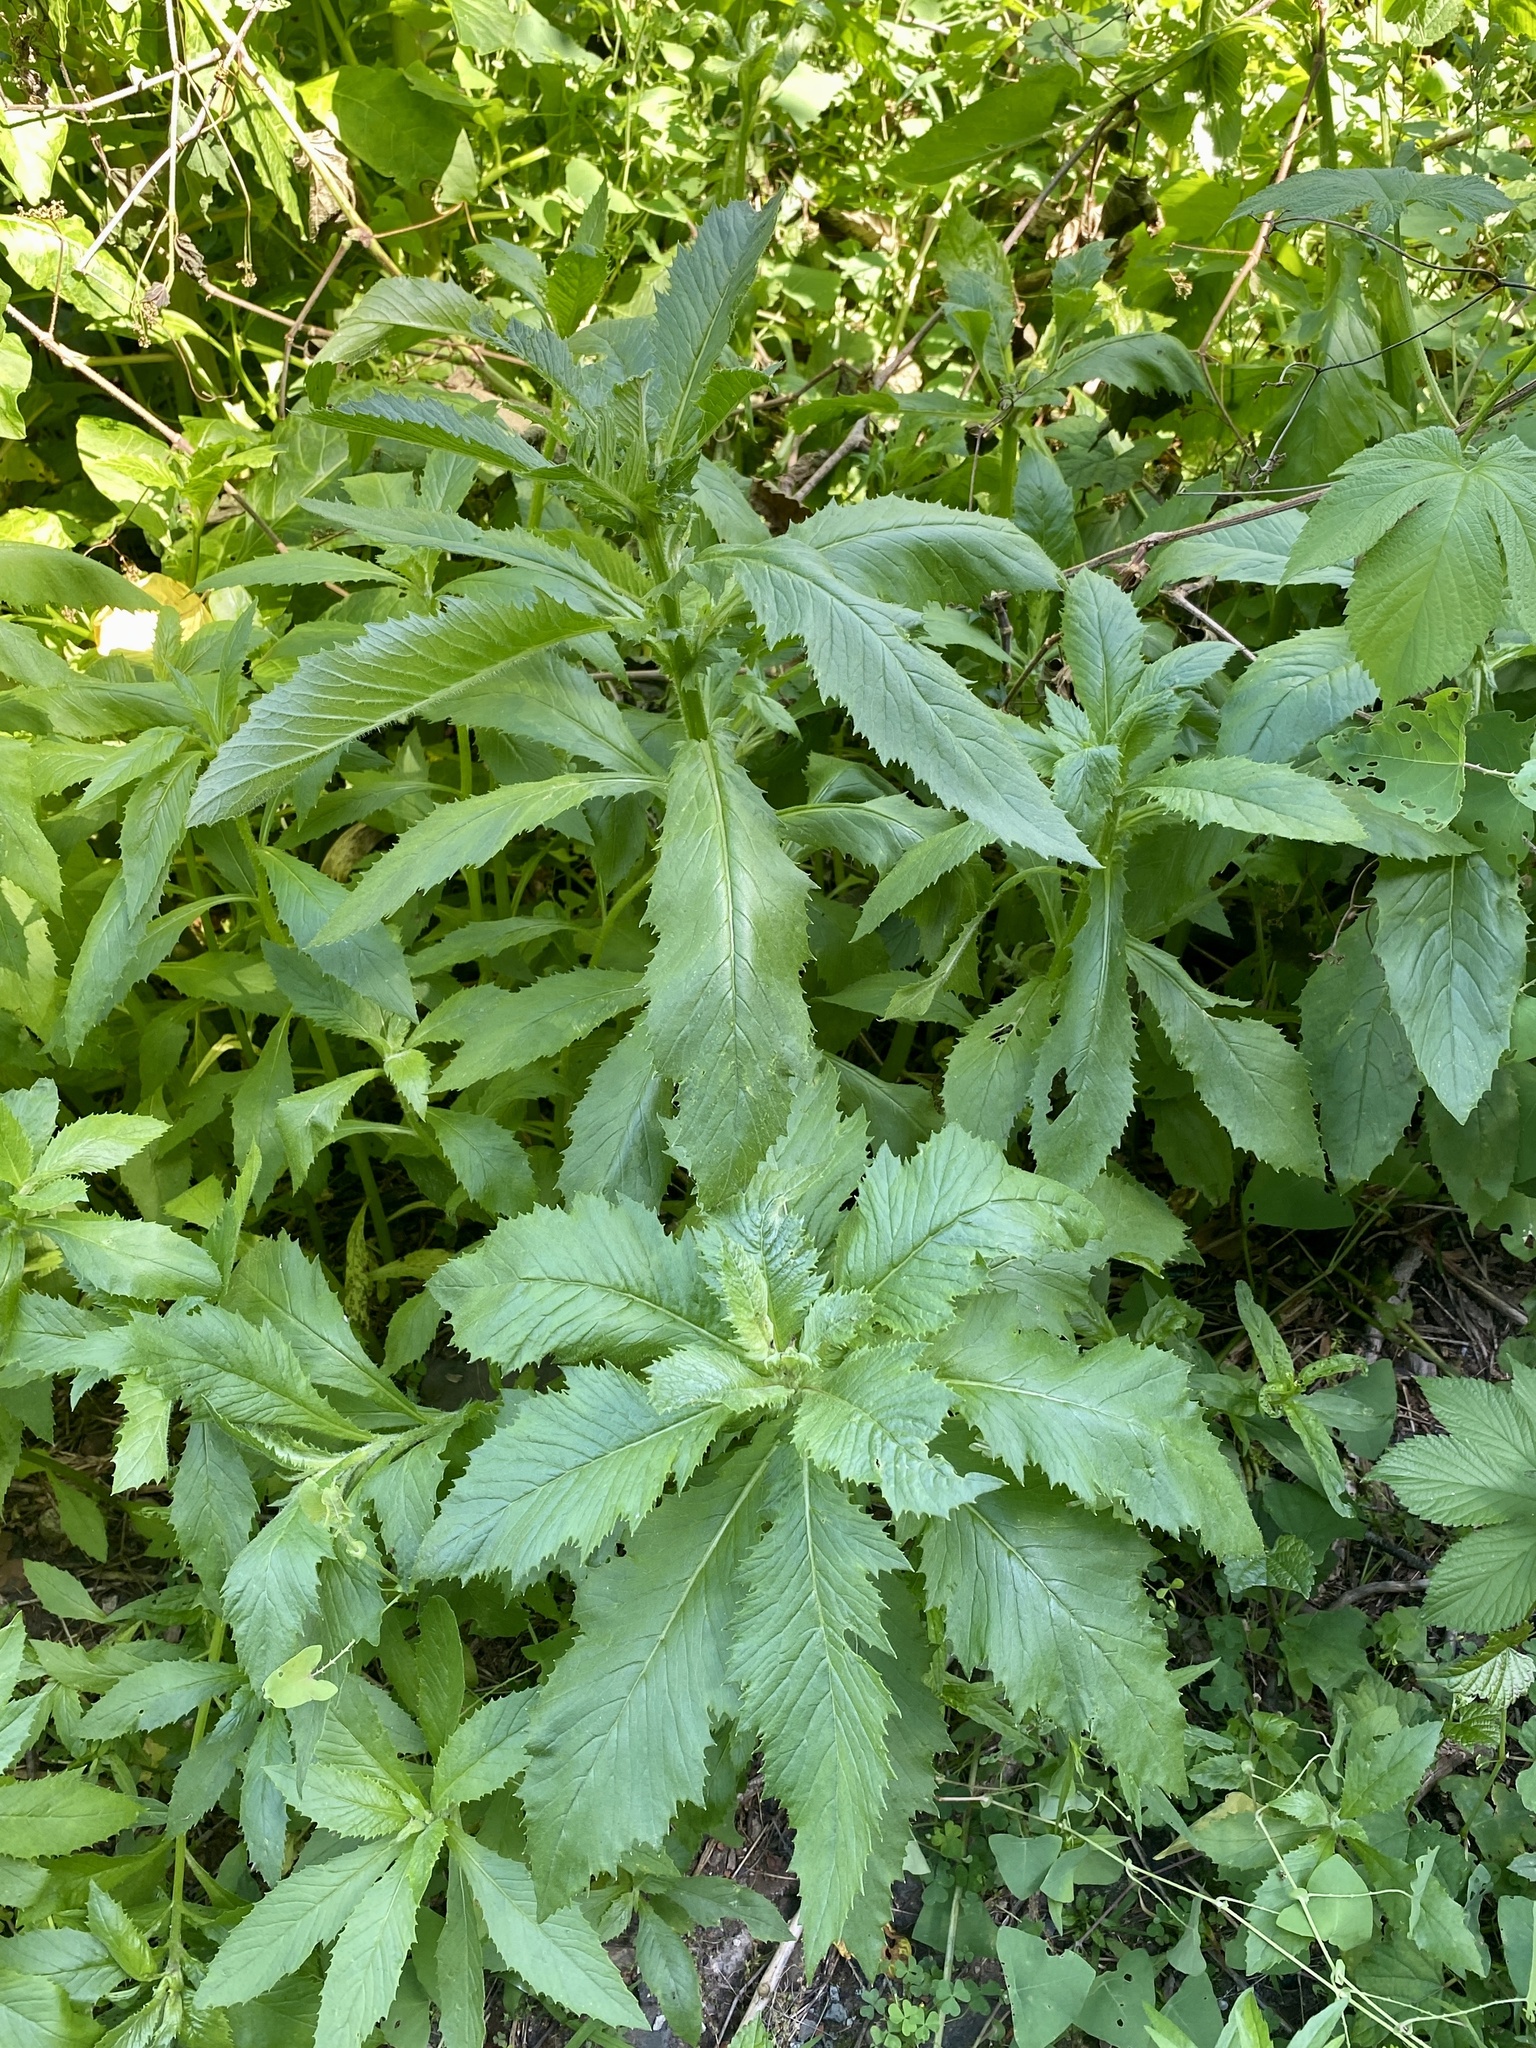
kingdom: Plantae
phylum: Tracheophyta
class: Magnoliopsida
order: Asterales
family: Asteraceae
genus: Erechtites
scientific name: Erechtites hieraciifolius
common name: American burnweed
